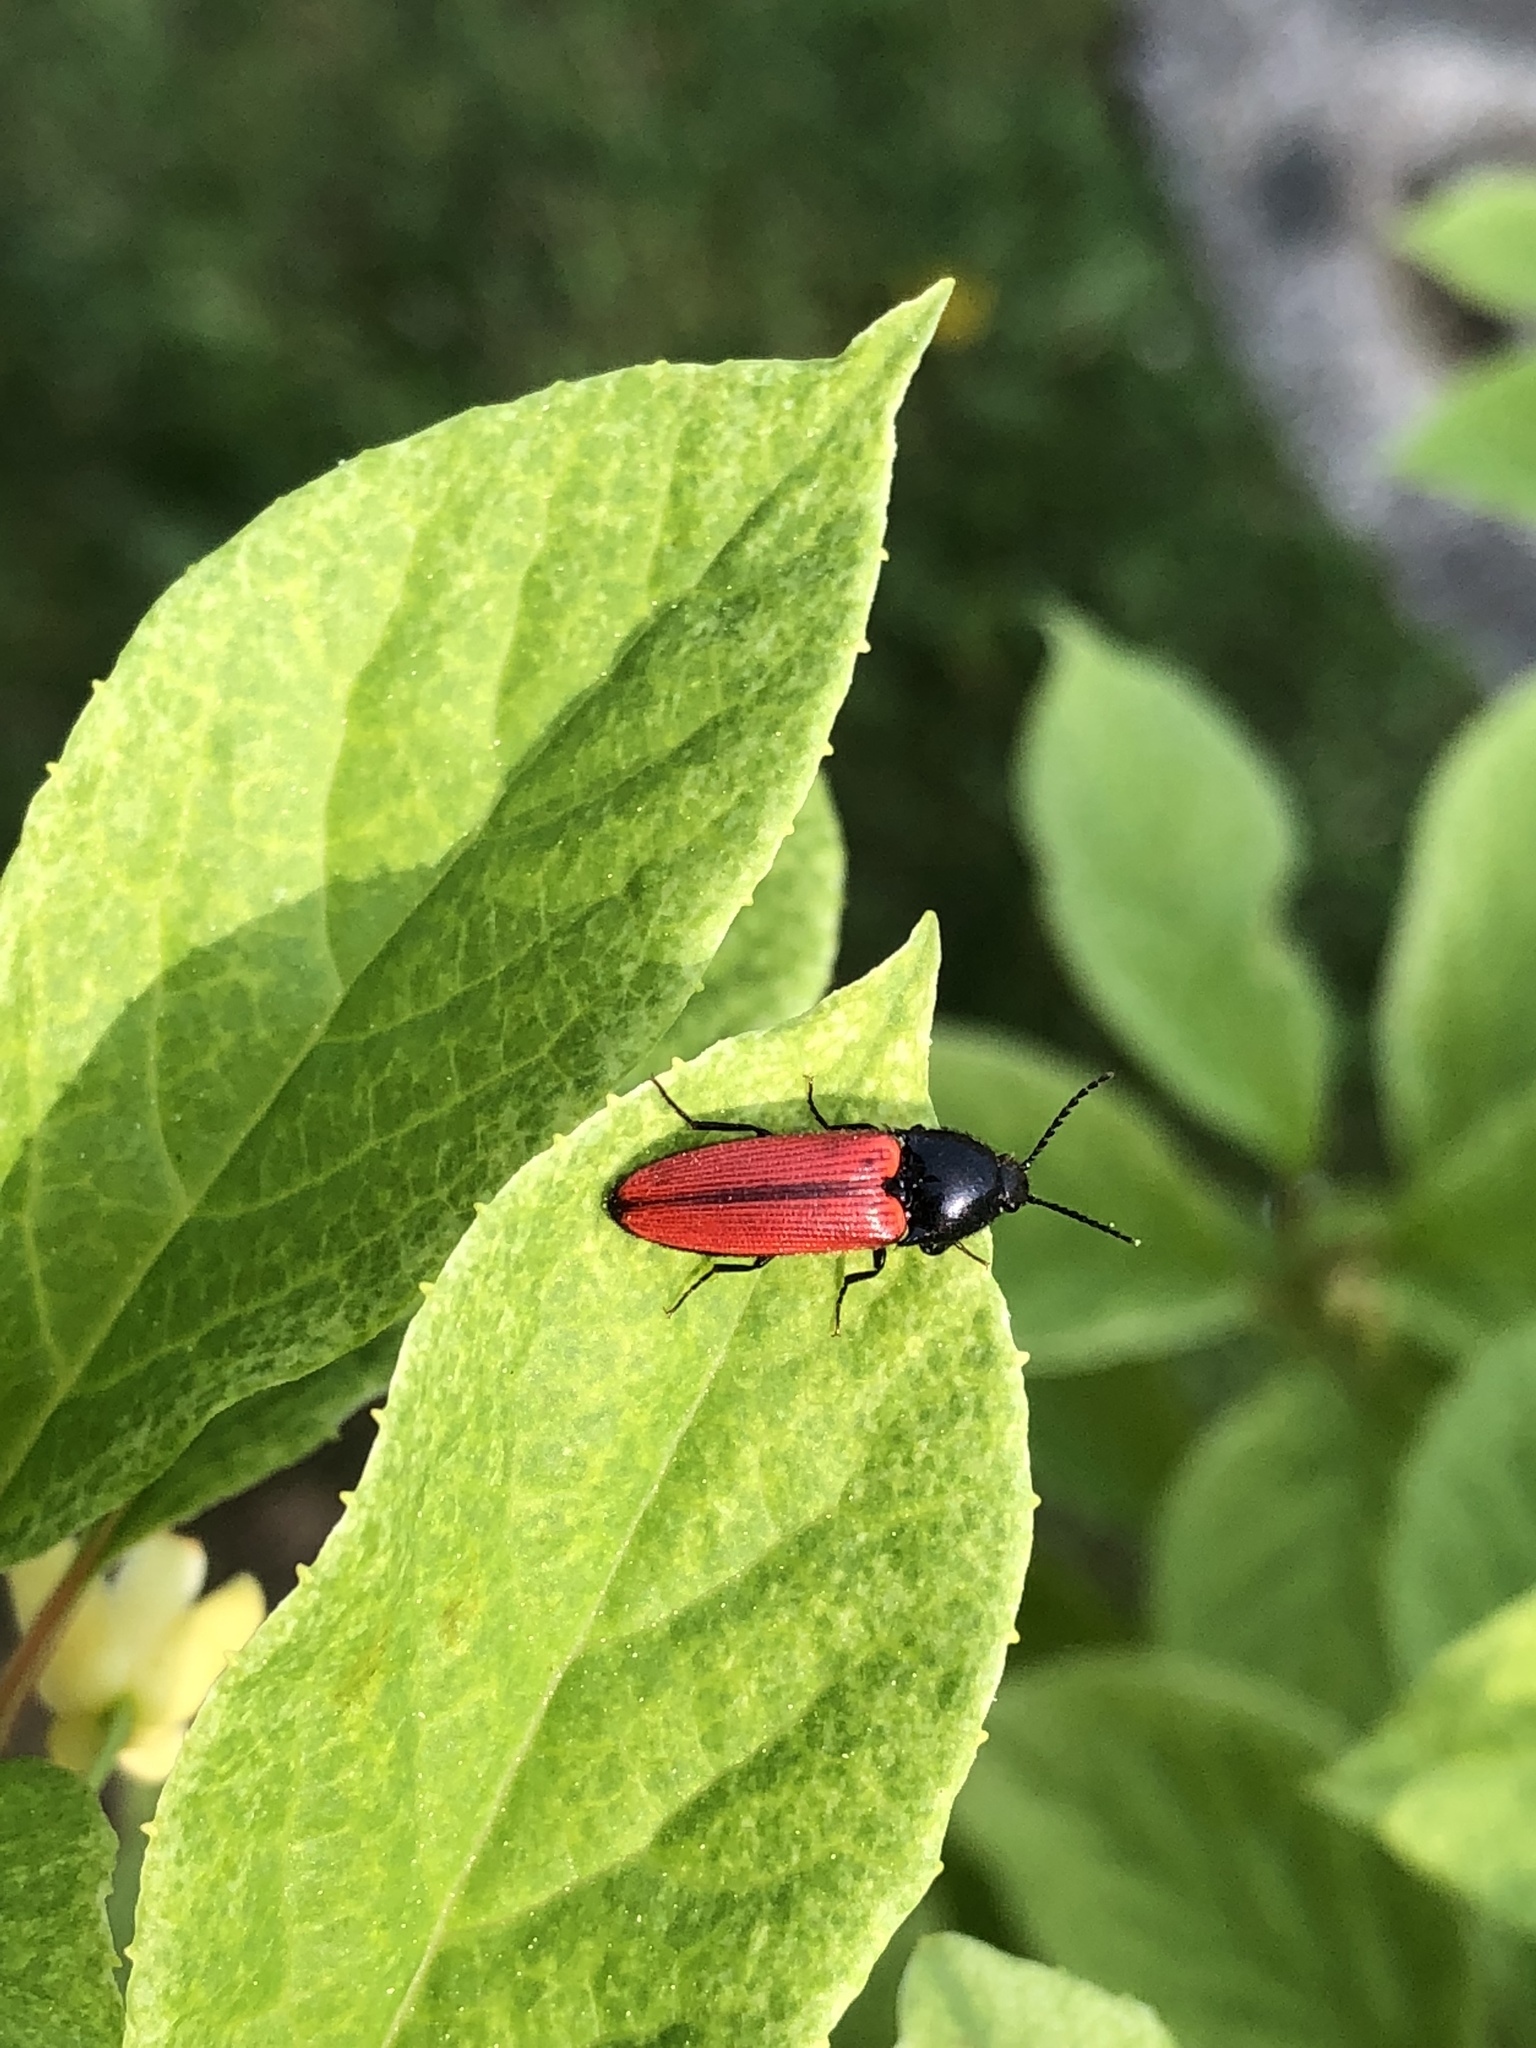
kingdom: Animalia
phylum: Arthropoda
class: Insecta
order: Coleoptera
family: Elateridae
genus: Ampedus
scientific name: Ampedus sanguineus
